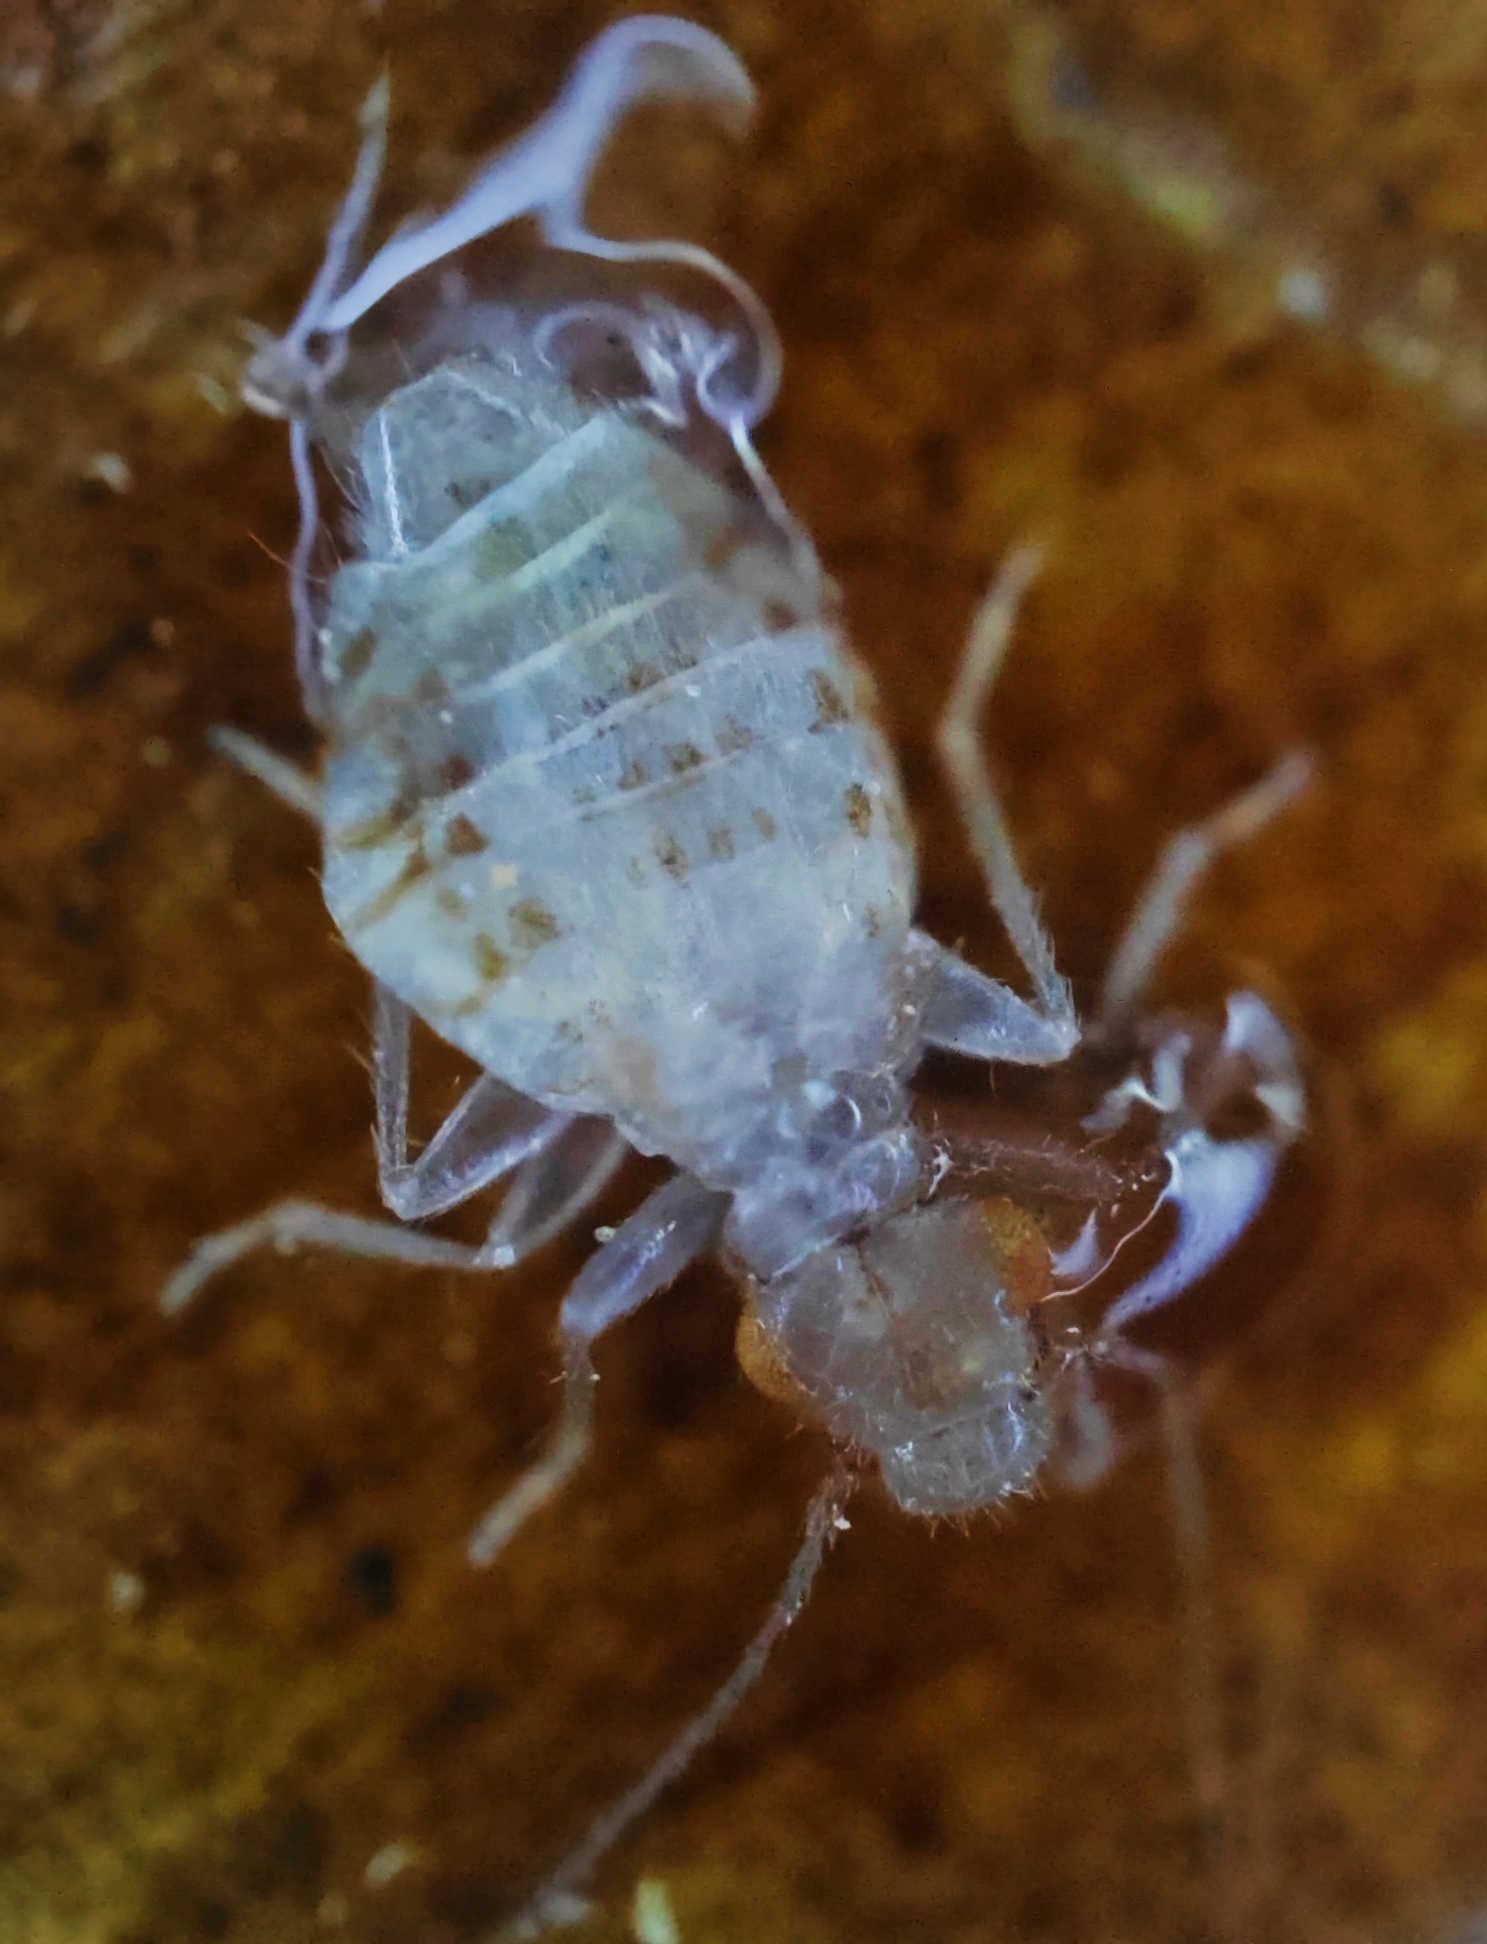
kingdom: Animalia
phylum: Arthropoda
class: Insecta
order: Psocodea
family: Trogiidae
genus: Trogium
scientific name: Trogium pulsatorium
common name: Granary book louse
